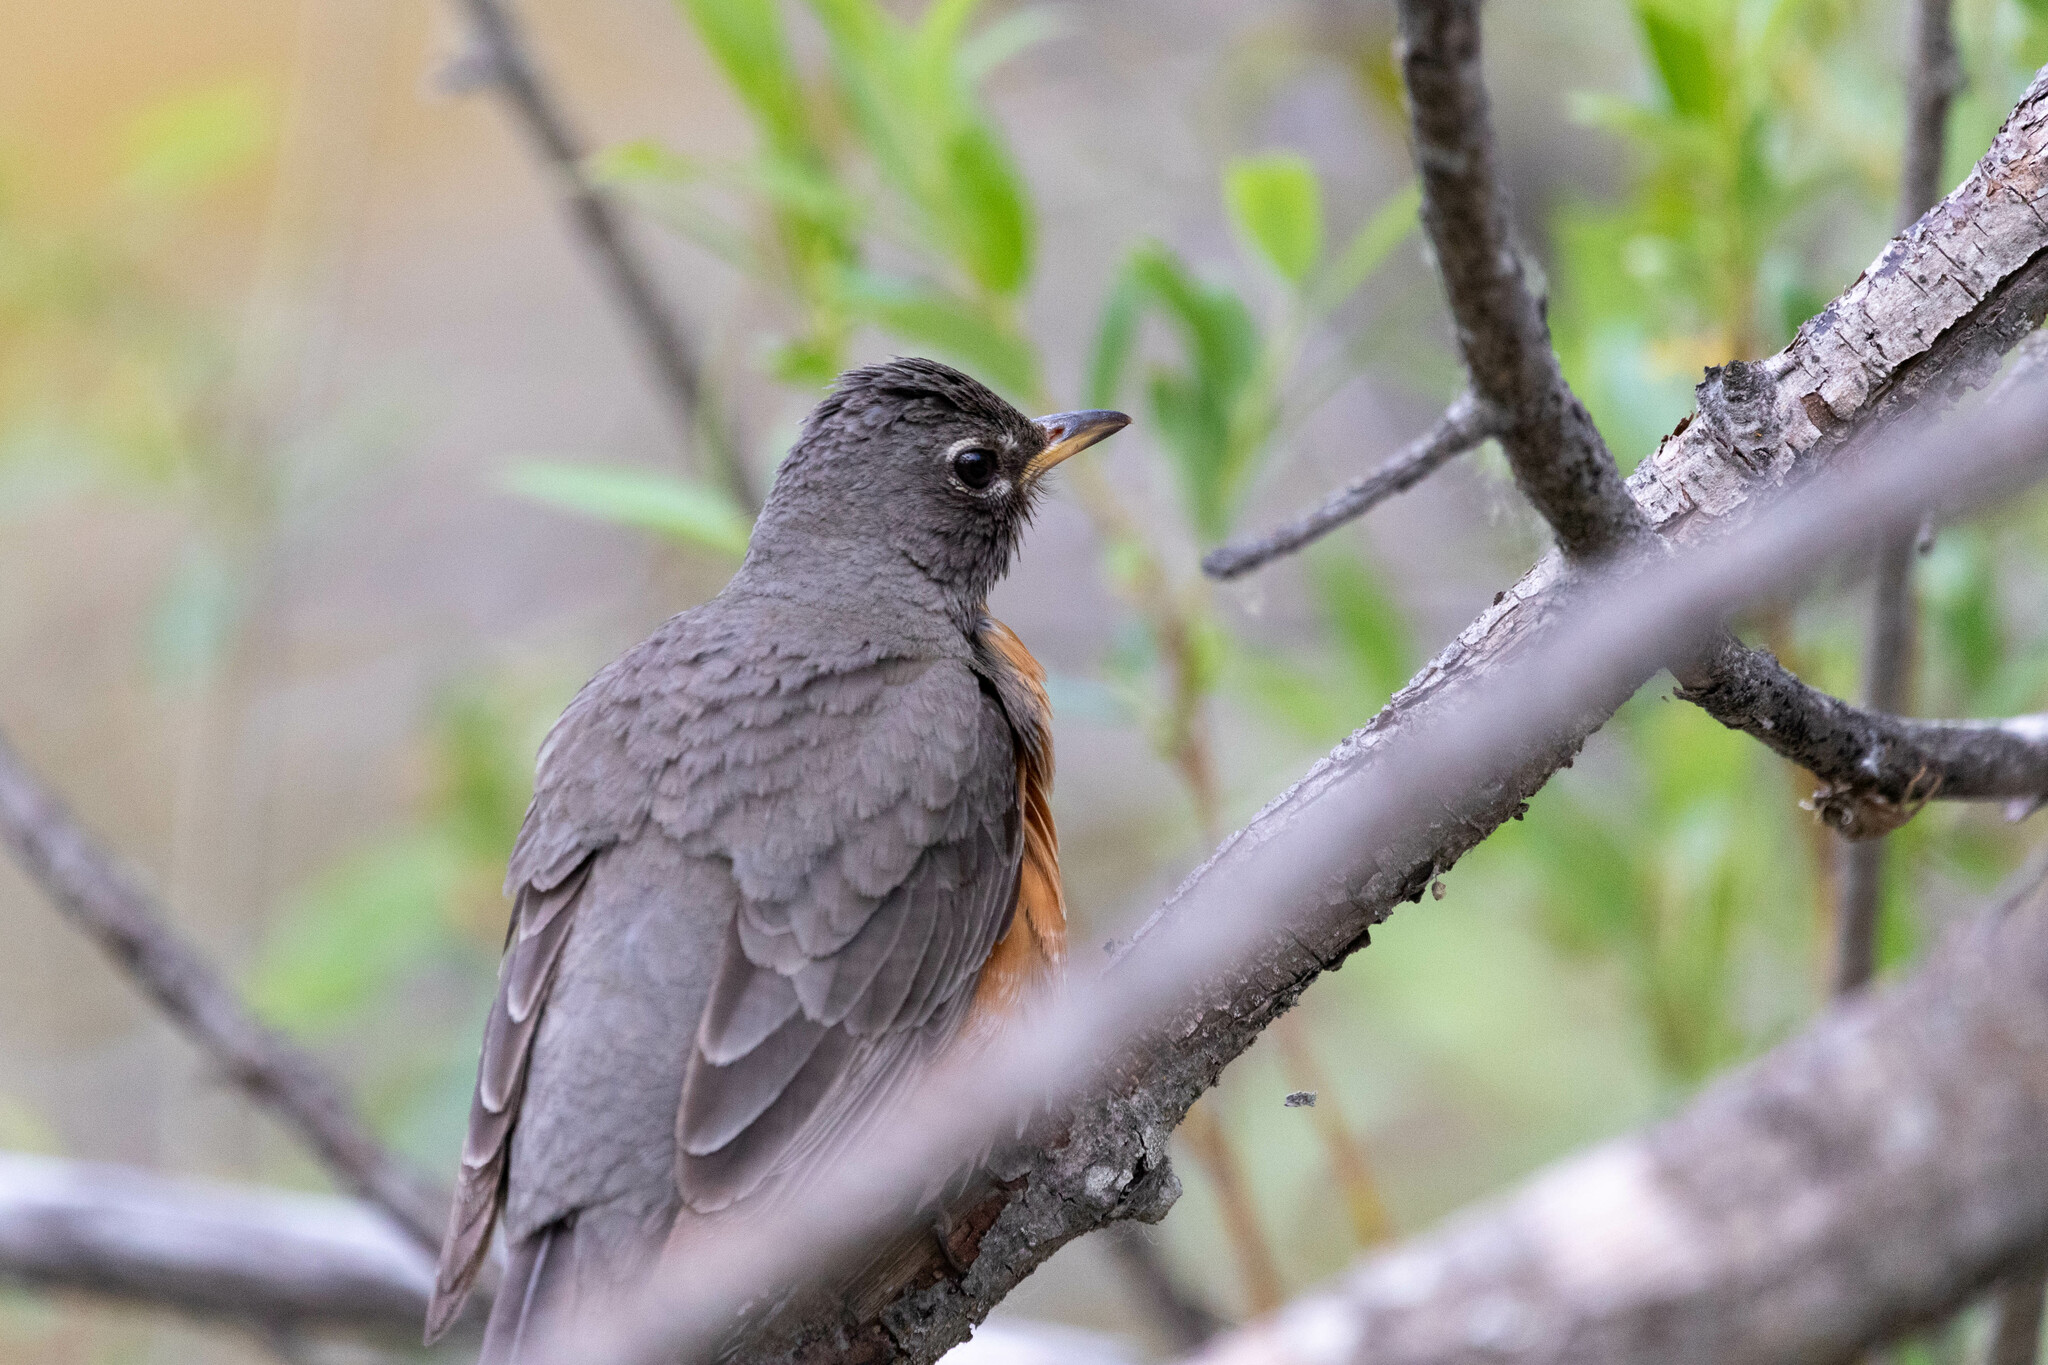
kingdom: Animalia
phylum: Chordata
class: Aves
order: Passeriformes
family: Turdidae
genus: Turdus
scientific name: Turdus migratorius
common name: American robin
